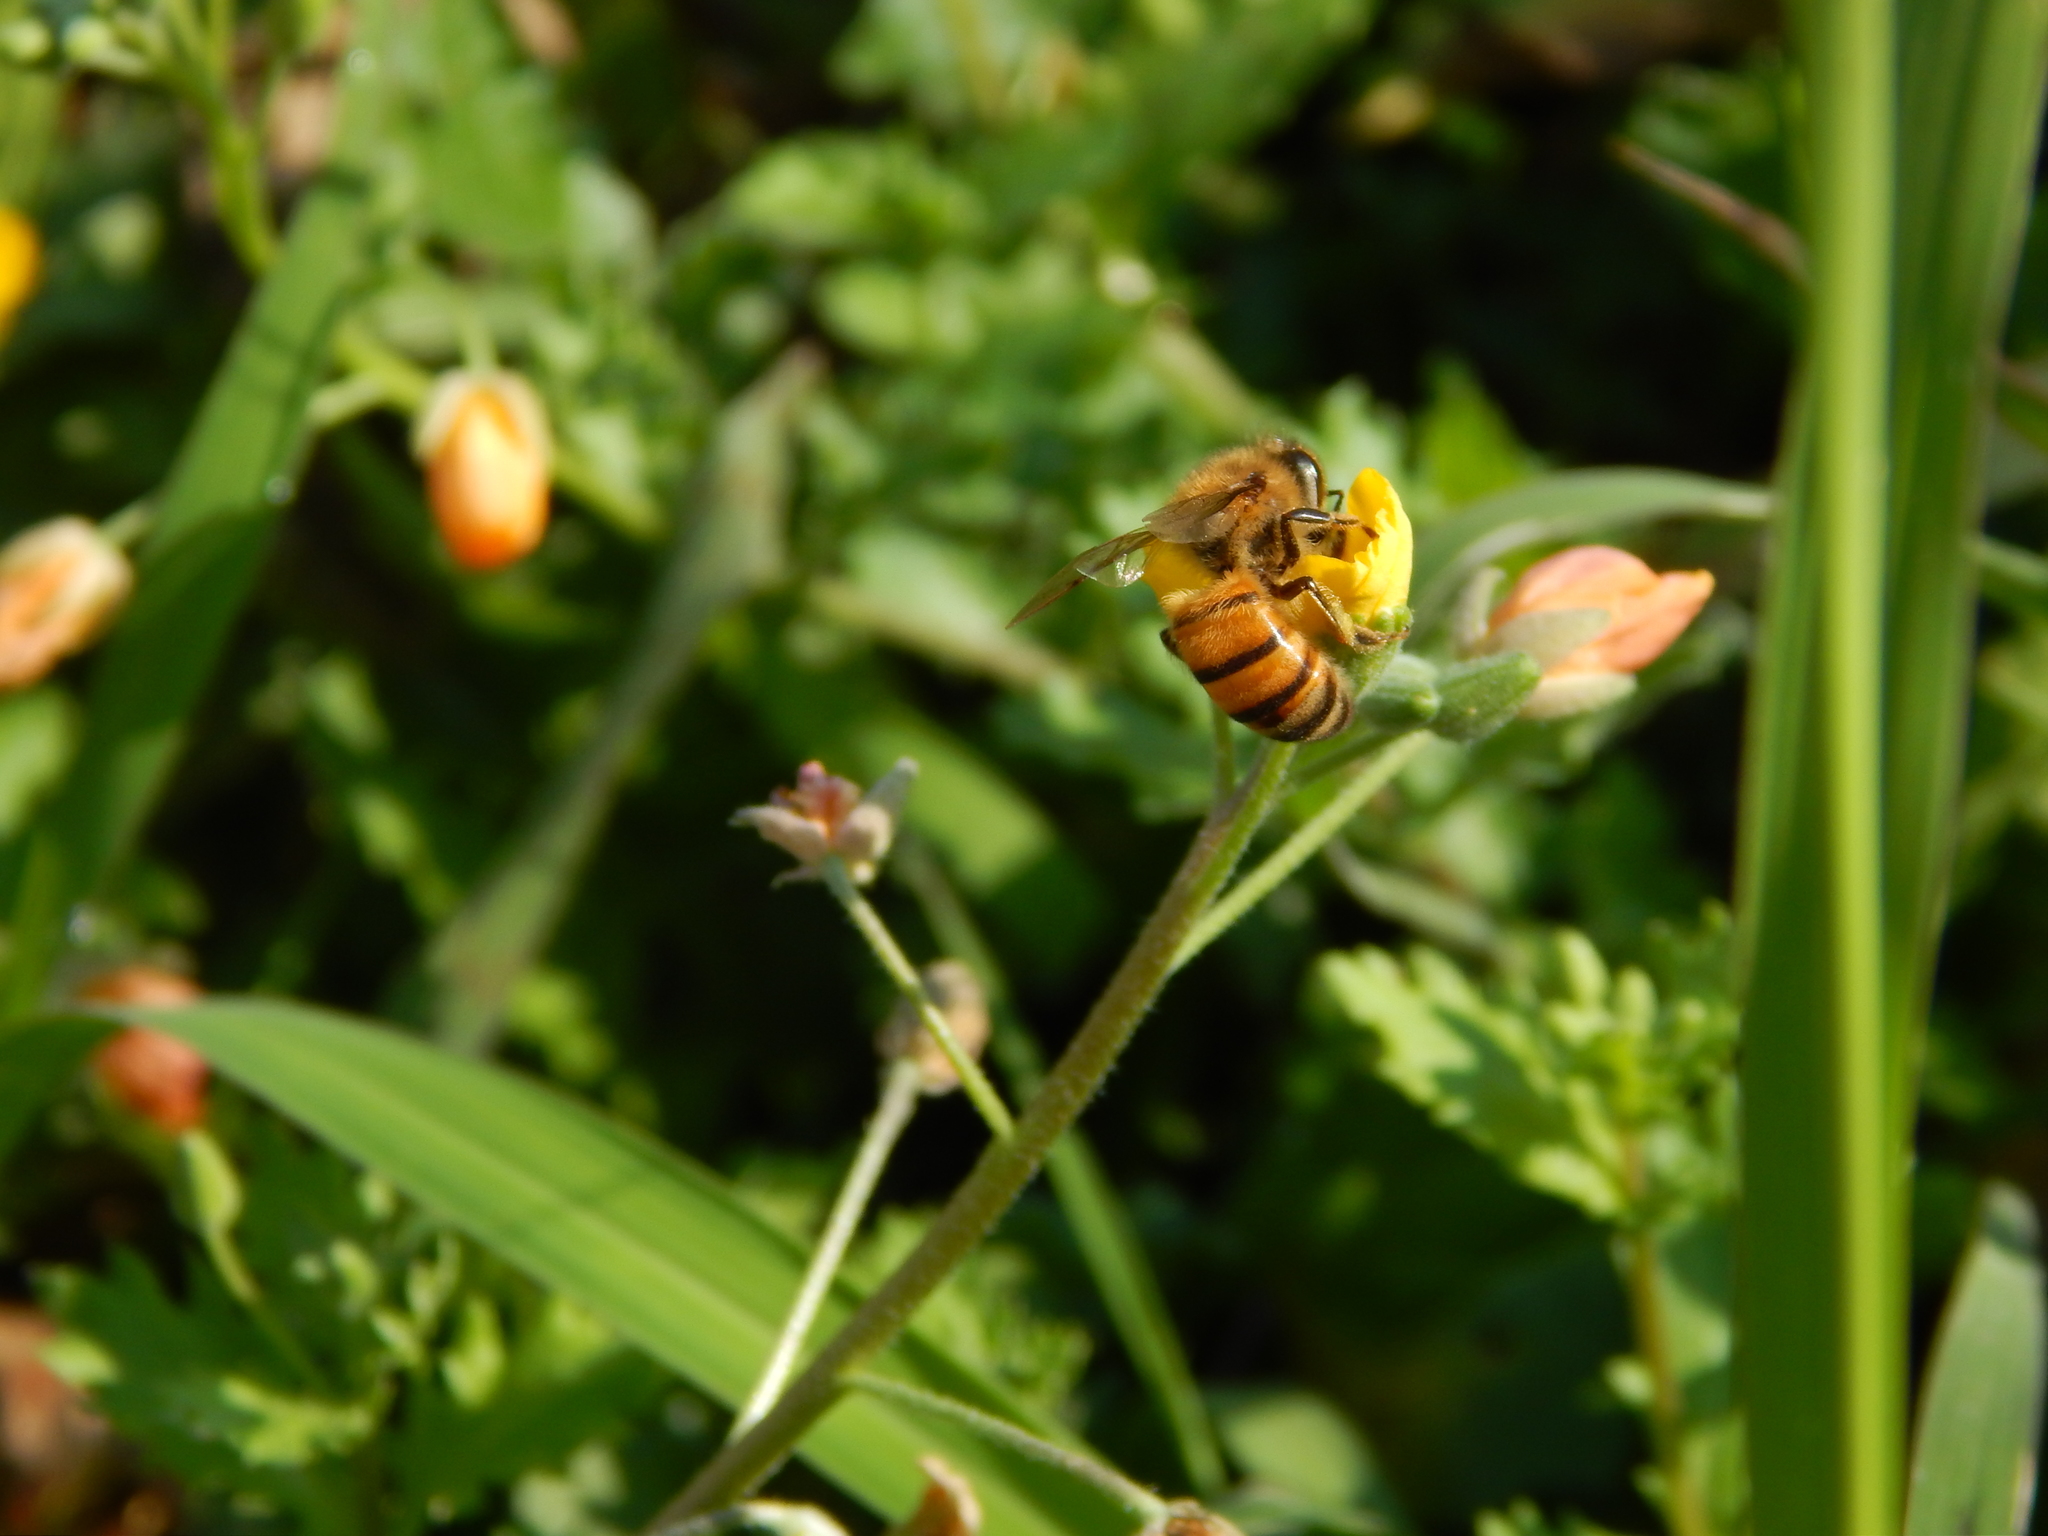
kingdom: Animalia
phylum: Arthropoda
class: Insecta
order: Hymenoptera
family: Apidae
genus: Apis
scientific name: Apis mellifera
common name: Honey bee
